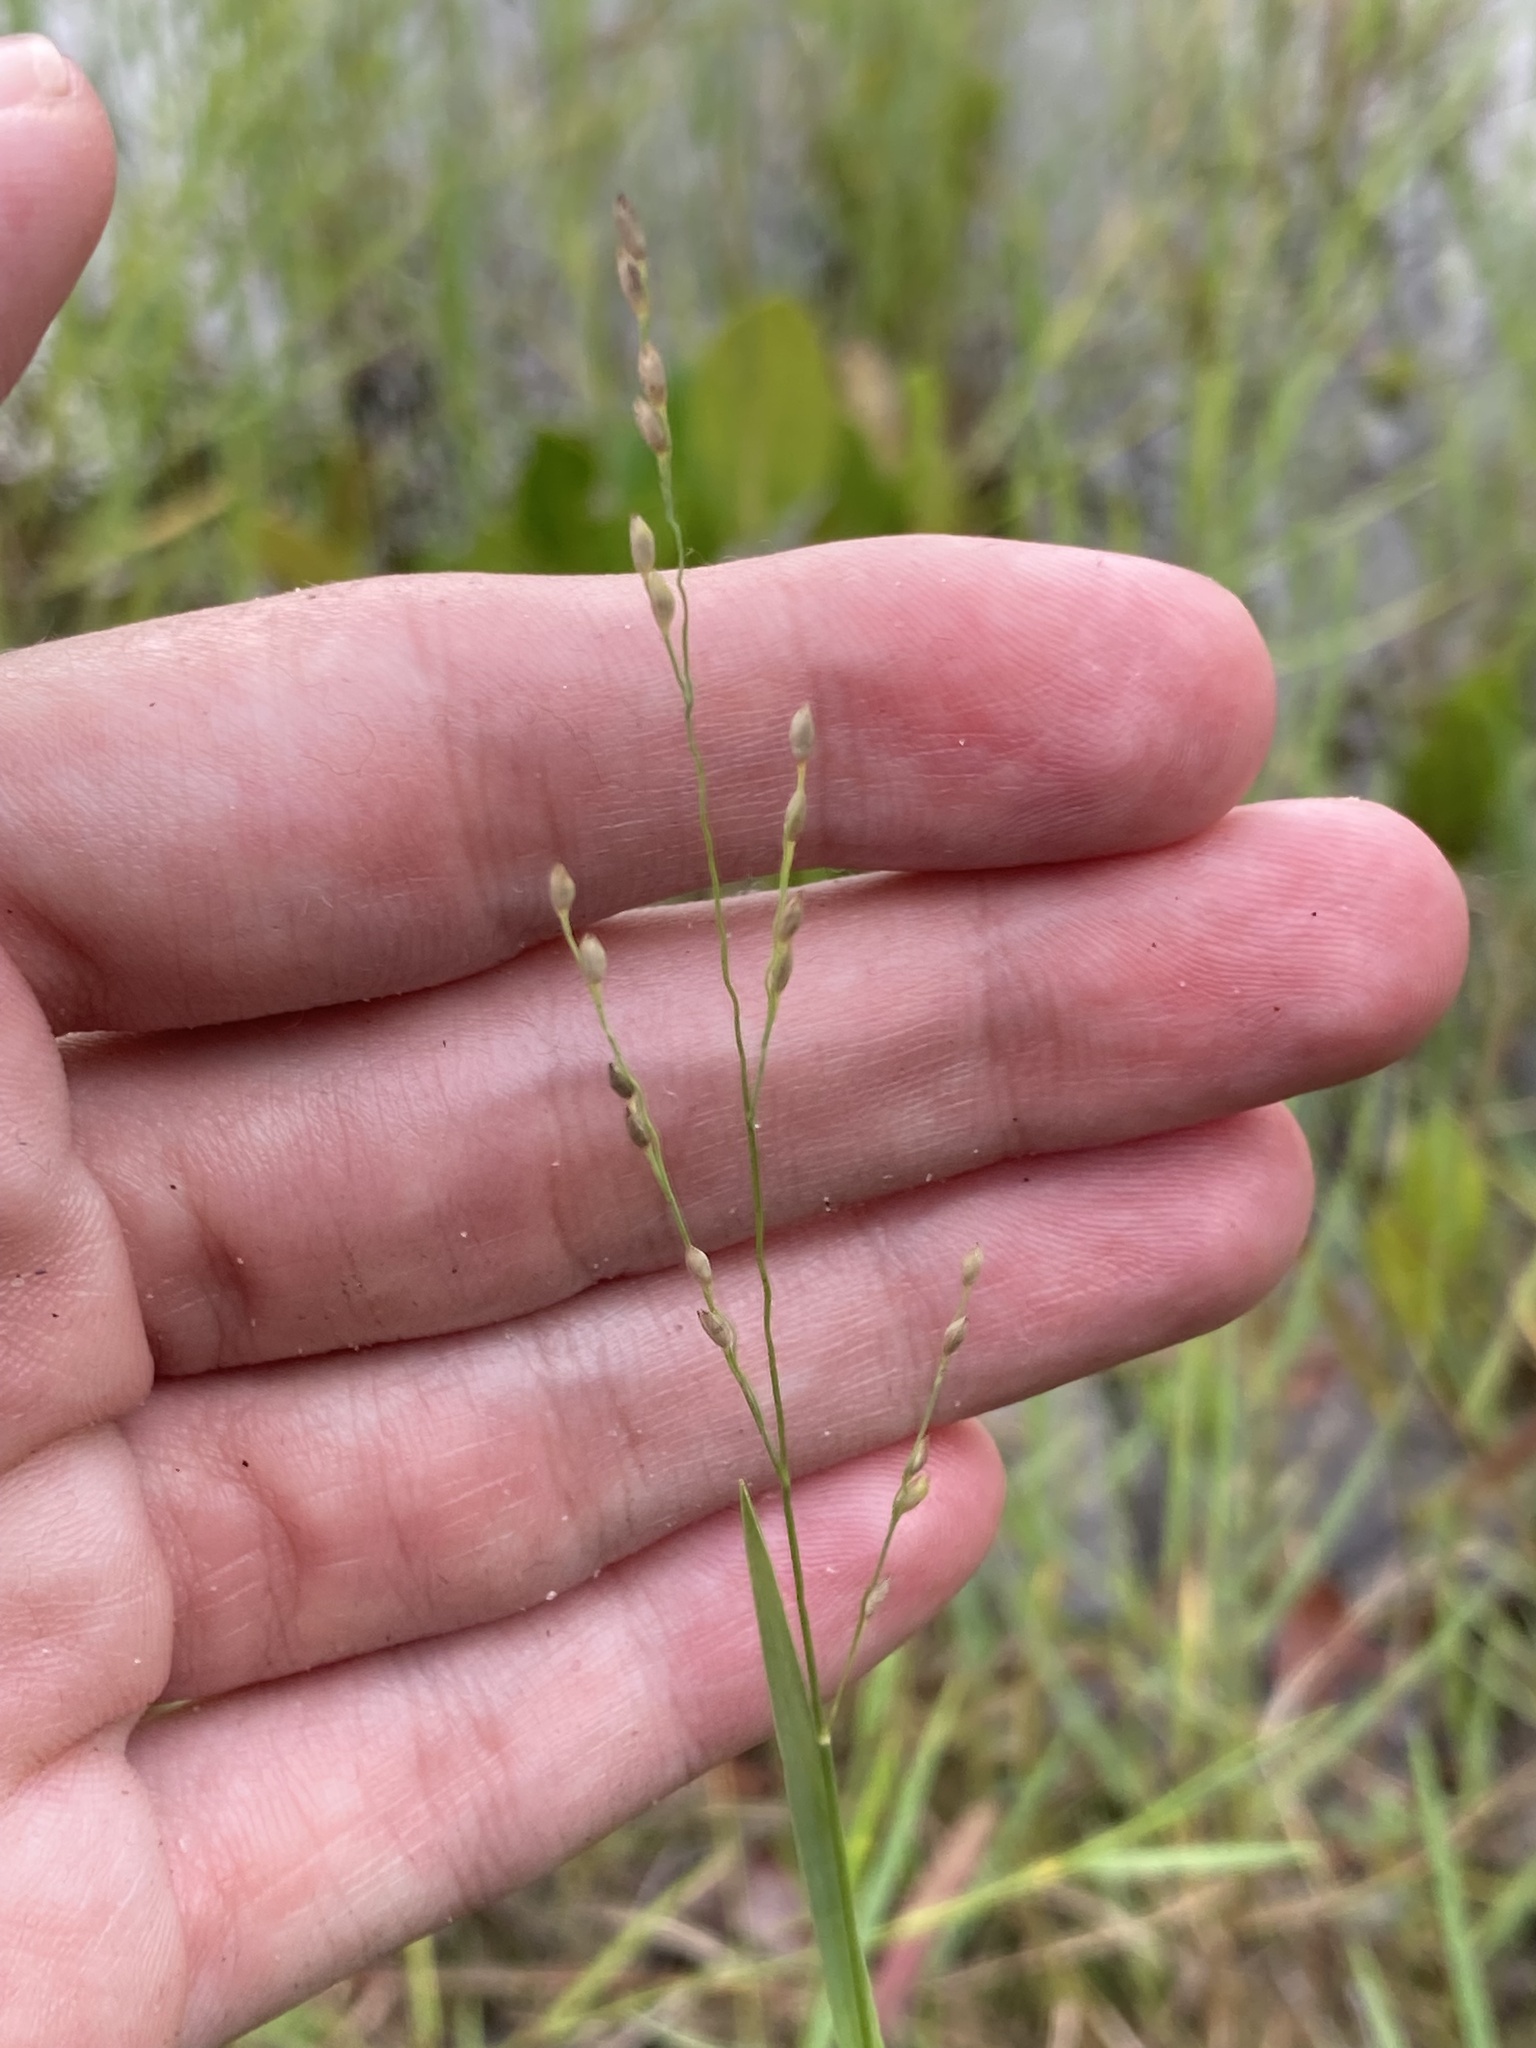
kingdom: Plantae
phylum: Tracheophyta
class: Liliopsida
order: Poales
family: Poaceae
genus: Panicum
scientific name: Panicum repens
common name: Torpedo grass
